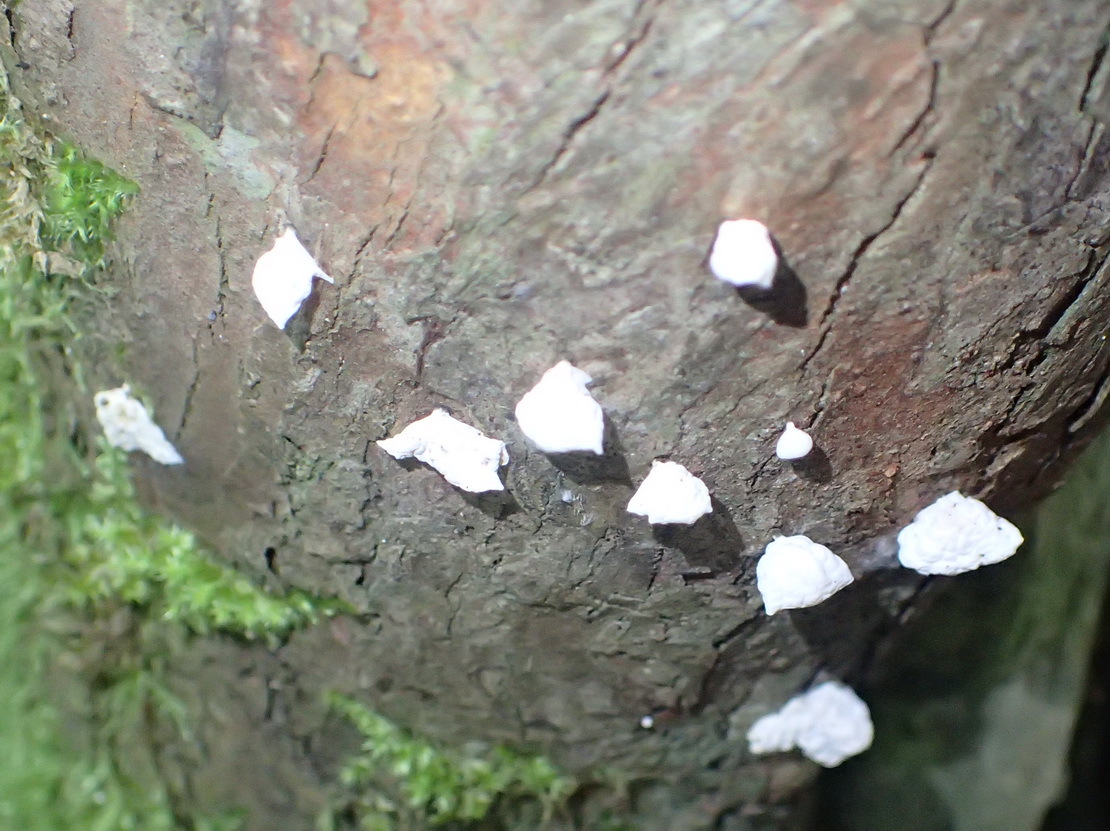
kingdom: Fungi
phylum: Basidiomycota
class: Agaricomycetes
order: Agaricales
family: Marasmiaceae
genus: Campanella
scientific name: Campanella capensis
